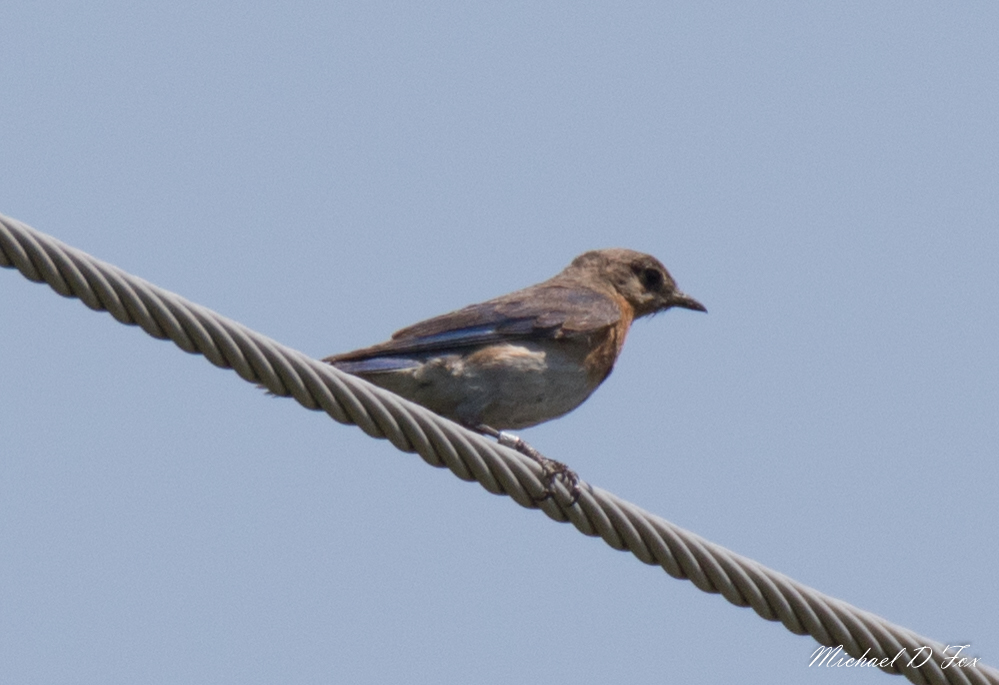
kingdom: Animalia
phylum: Chordata
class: Aves
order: Passeriformes
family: Turdidae
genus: Sialia
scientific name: Sialia sialis
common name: Eastern bluebird
